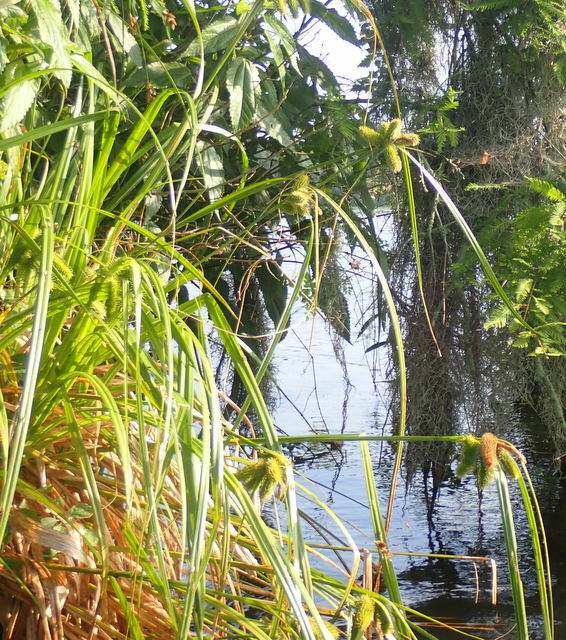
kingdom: Plantae
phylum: Tracheophyta
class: Liliopsida
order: Poales
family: Cyperaceae
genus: Carex
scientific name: Carex comosa
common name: Bristly sedge
